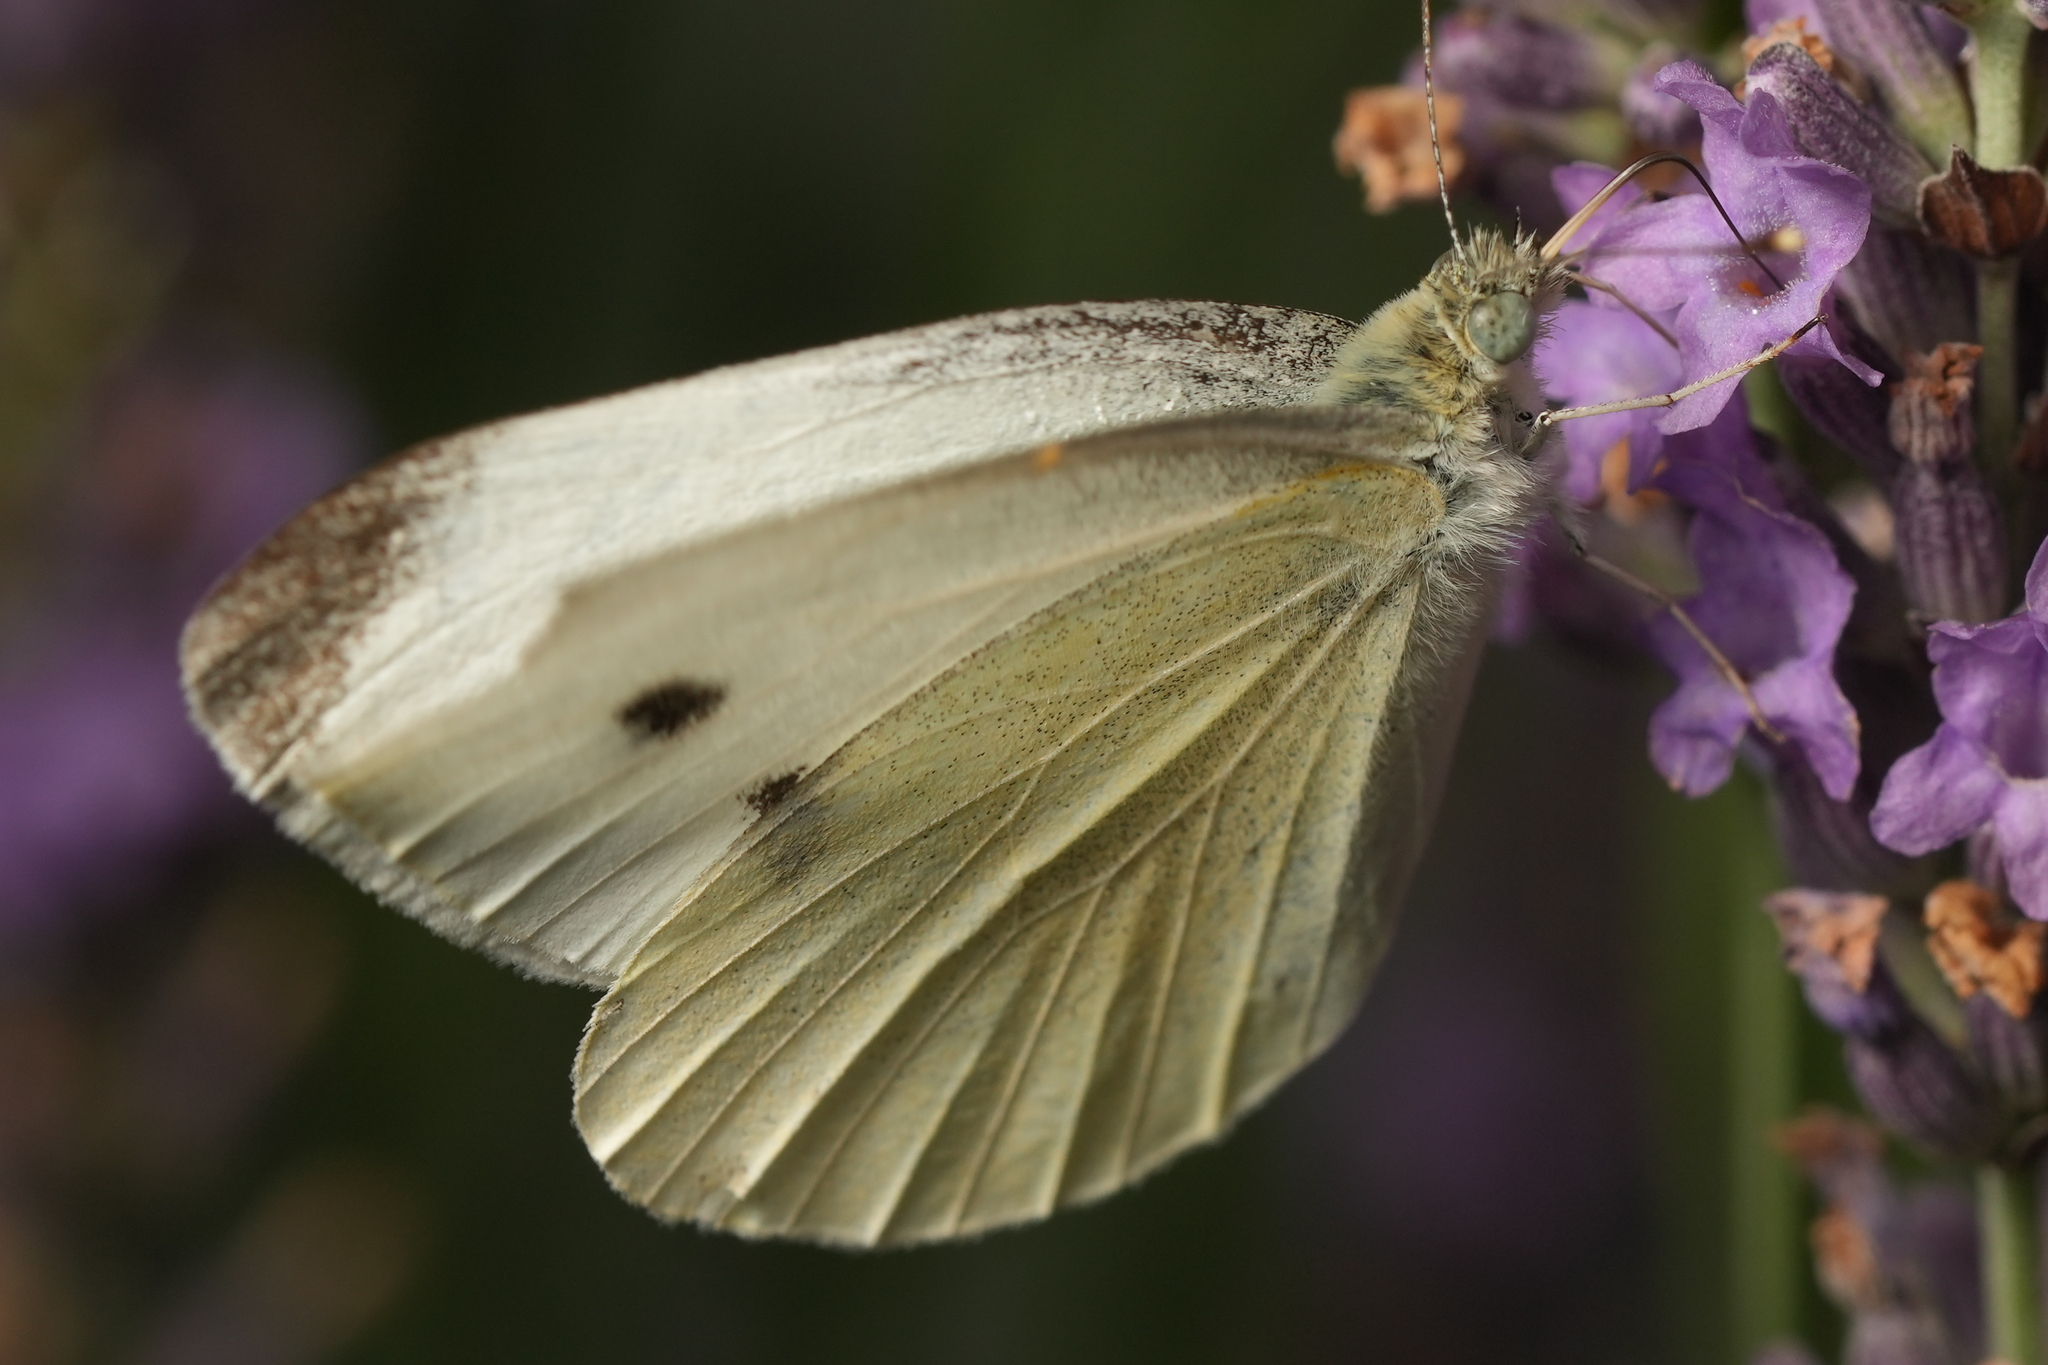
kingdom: Animalia
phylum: Arthropoda
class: Insecta
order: Lepidoptera
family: Pieridae
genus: Pieris
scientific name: Pieris rapae
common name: Small white
